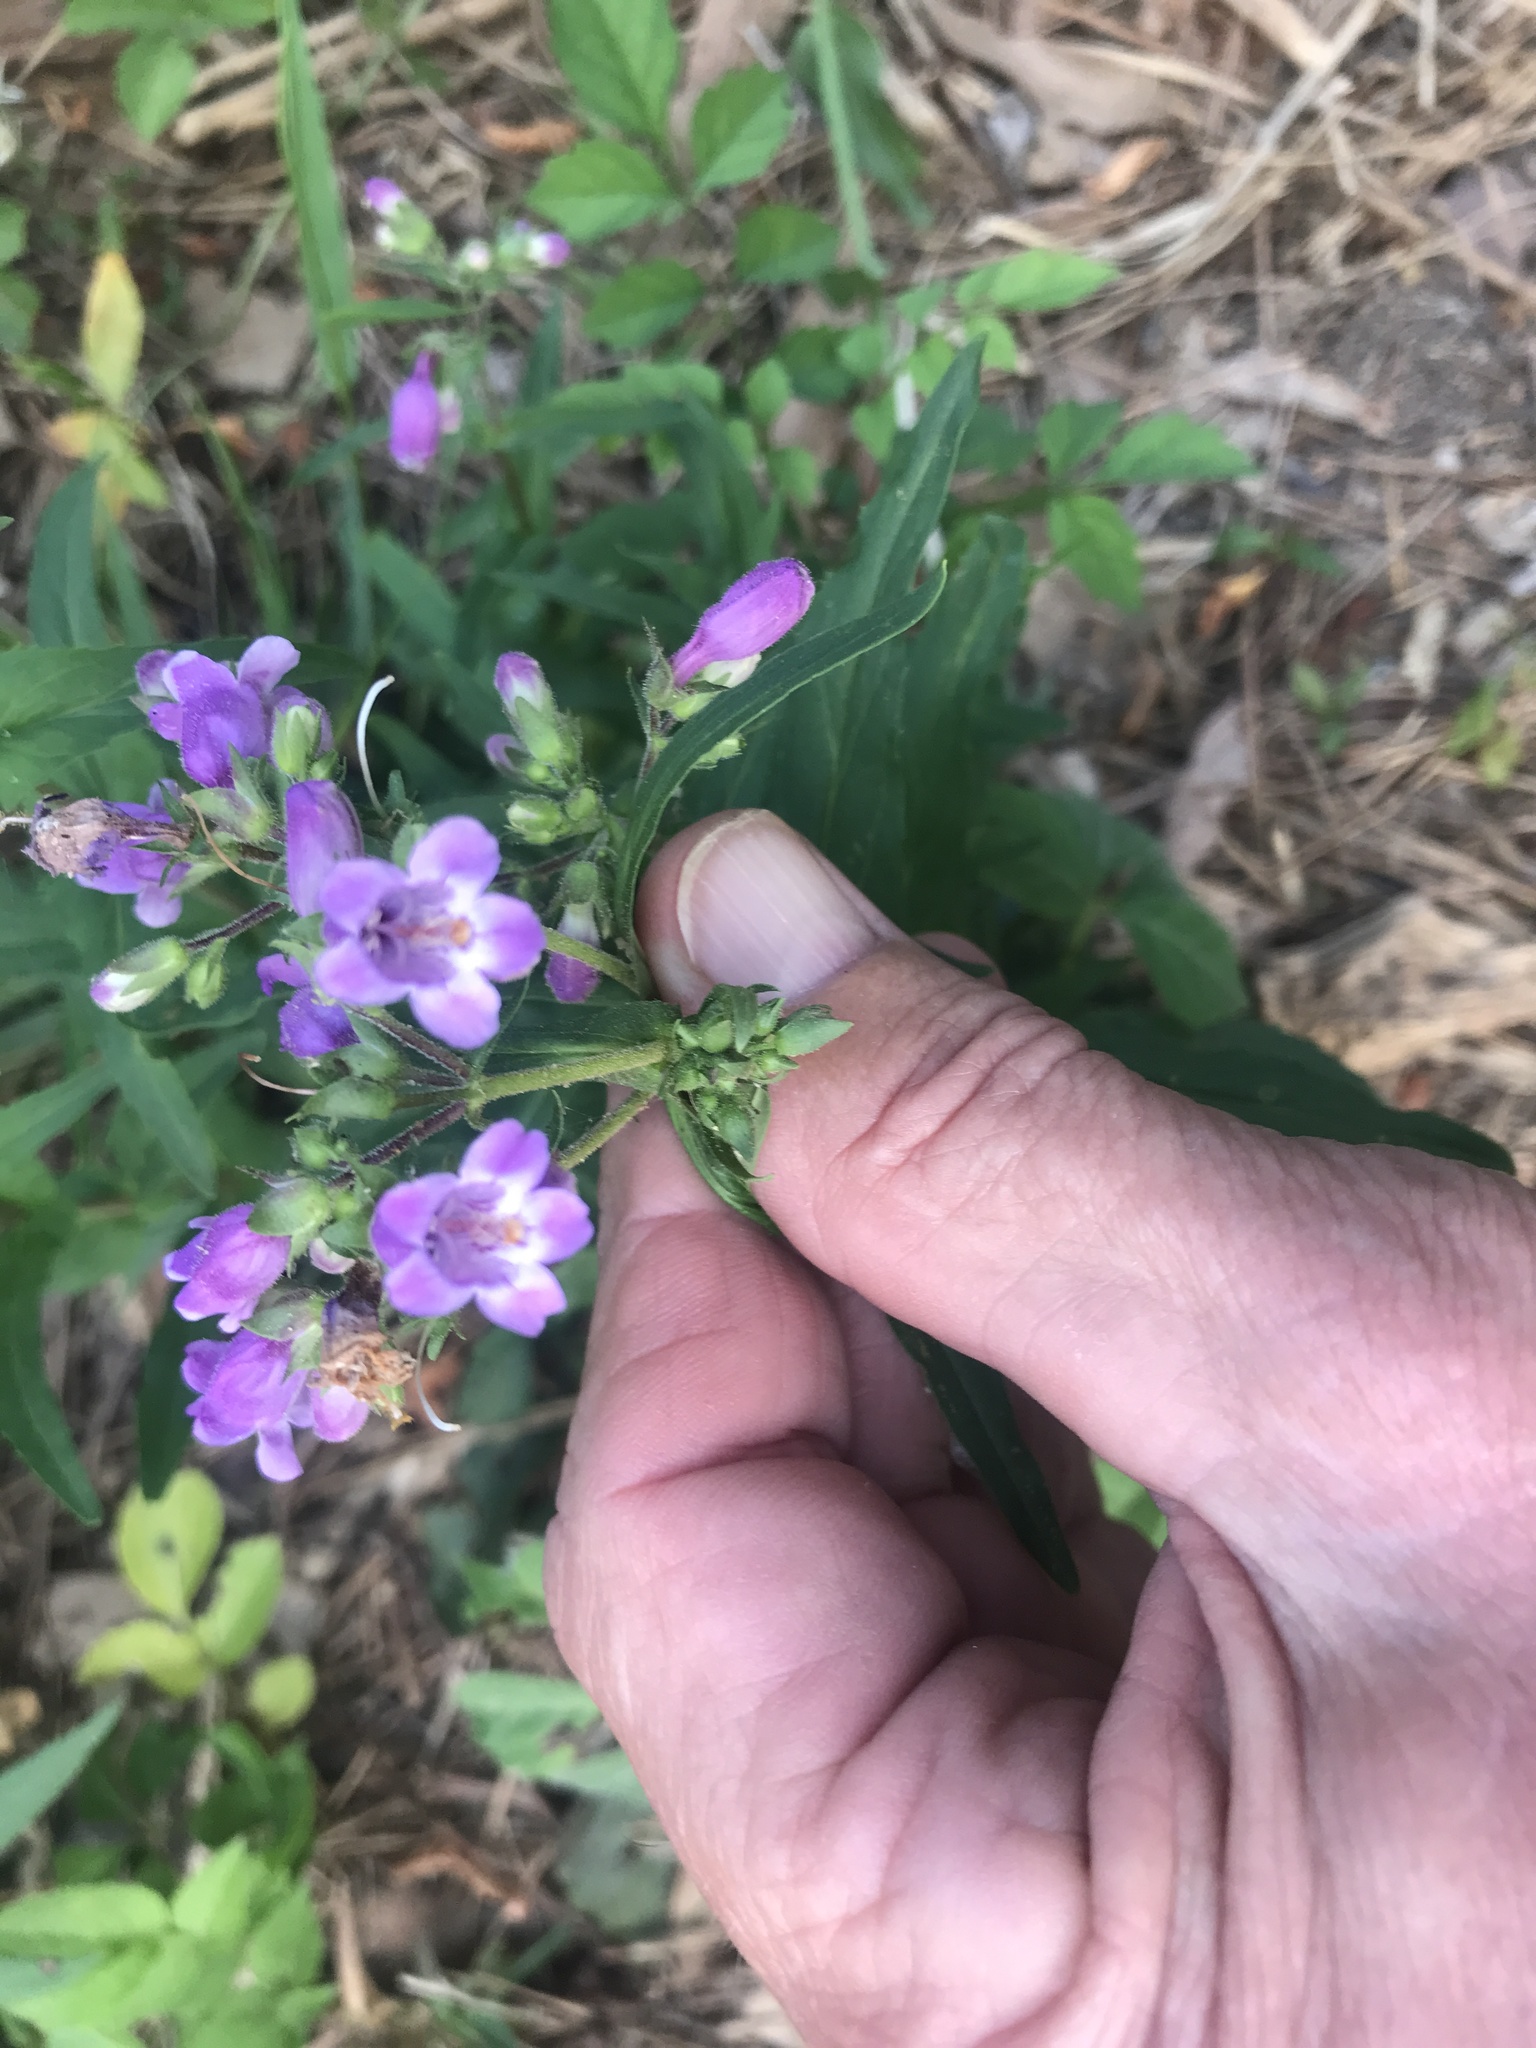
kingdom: Plantae
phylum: Tracheophyta
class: Magnoliopsida
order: Lamiales
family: Plantaginaceae
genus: Penstemon
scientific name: Penstemon tenuis
